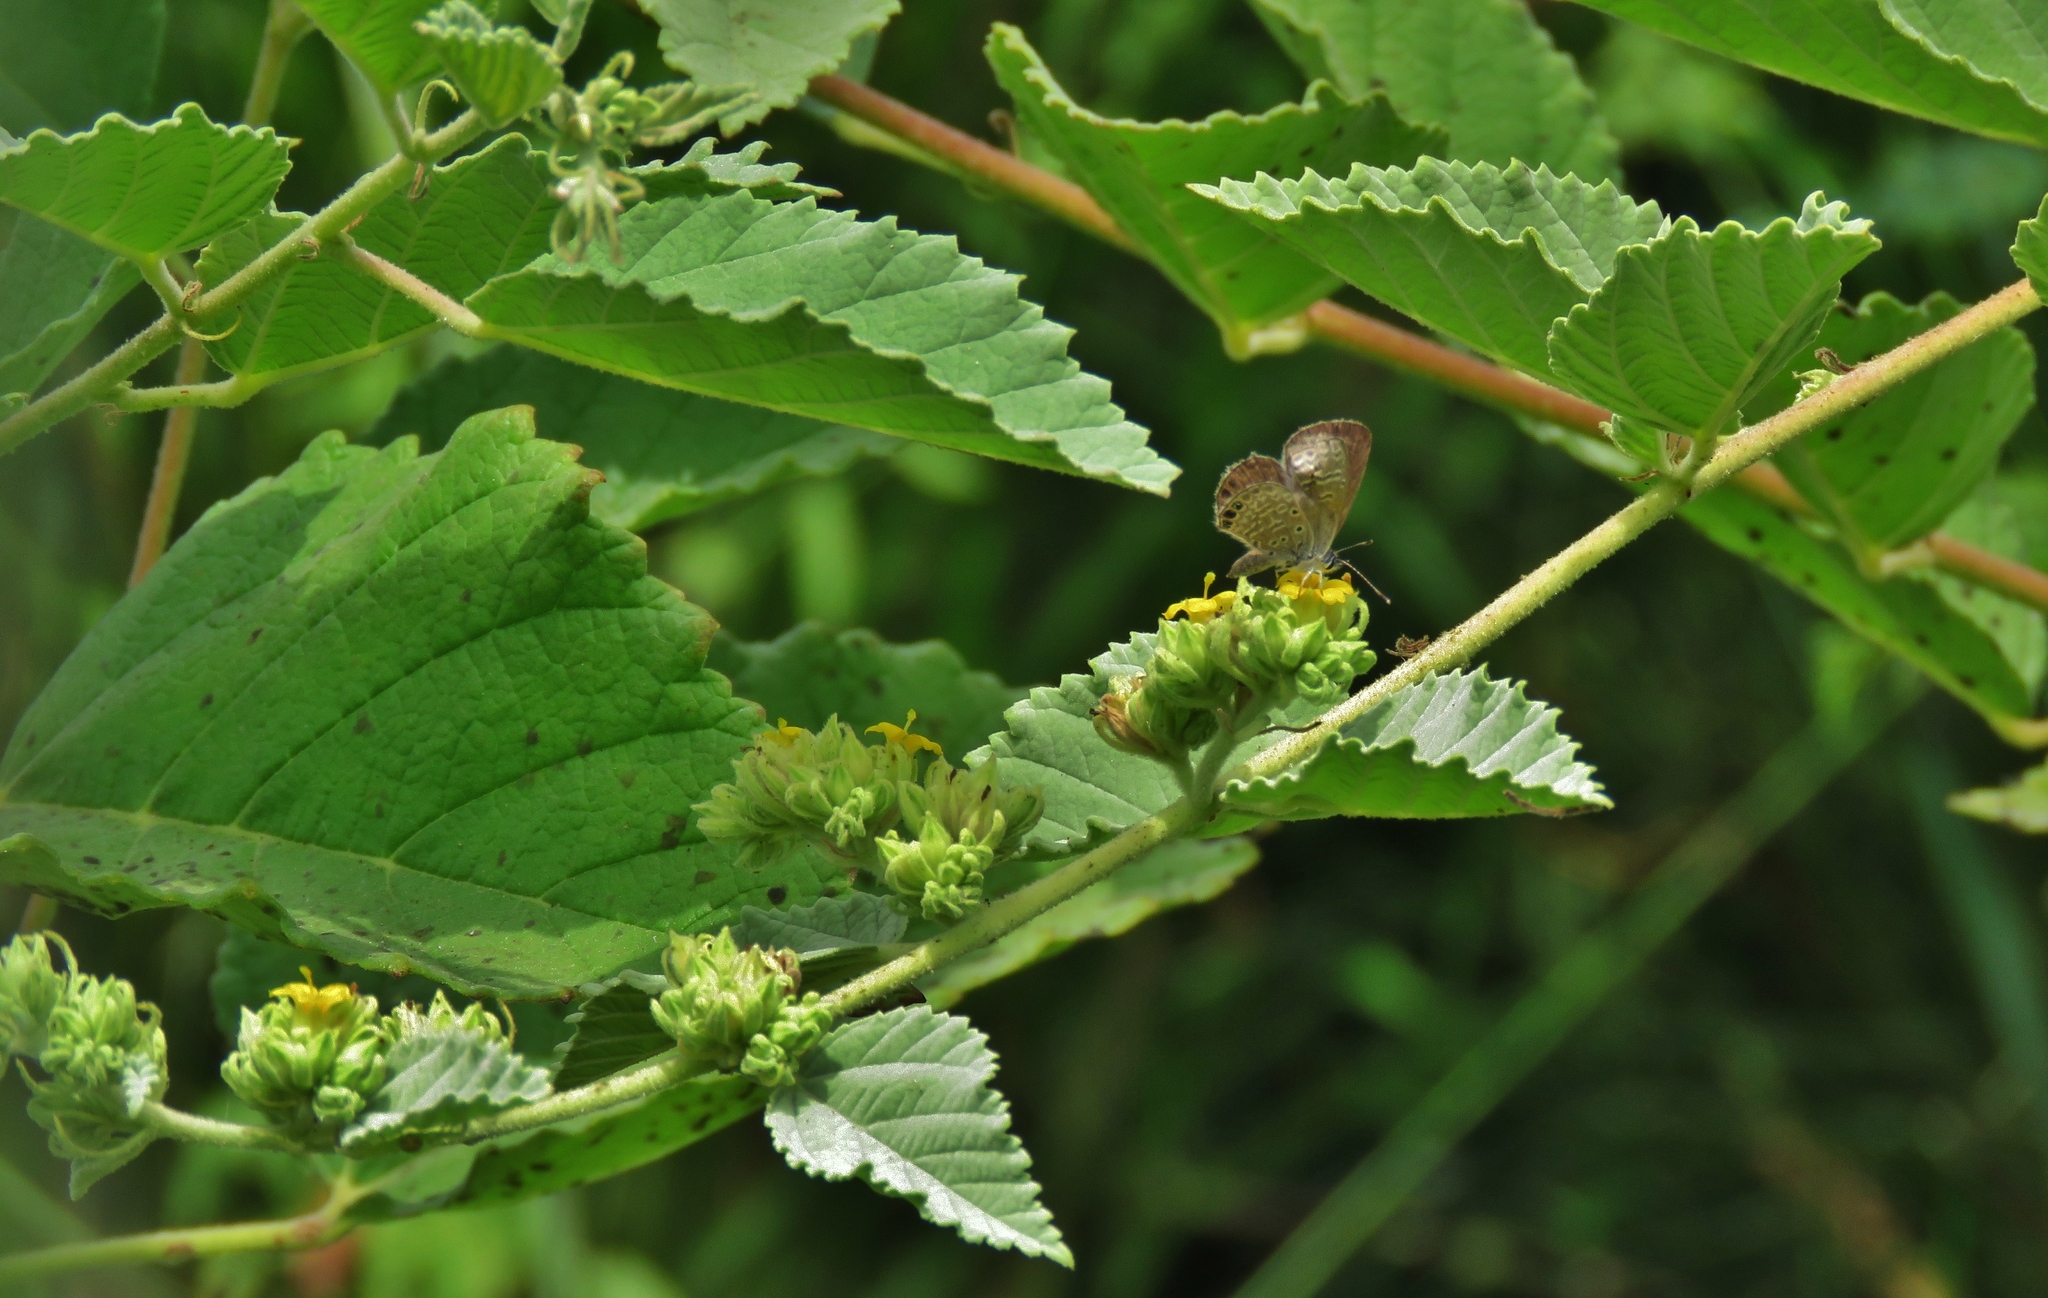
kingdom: Plantae
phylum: Tracheophyta
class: Magnoliopsida
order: Malvales
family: Malvaceae
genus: Waltheria
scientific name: Waltheria ovata
